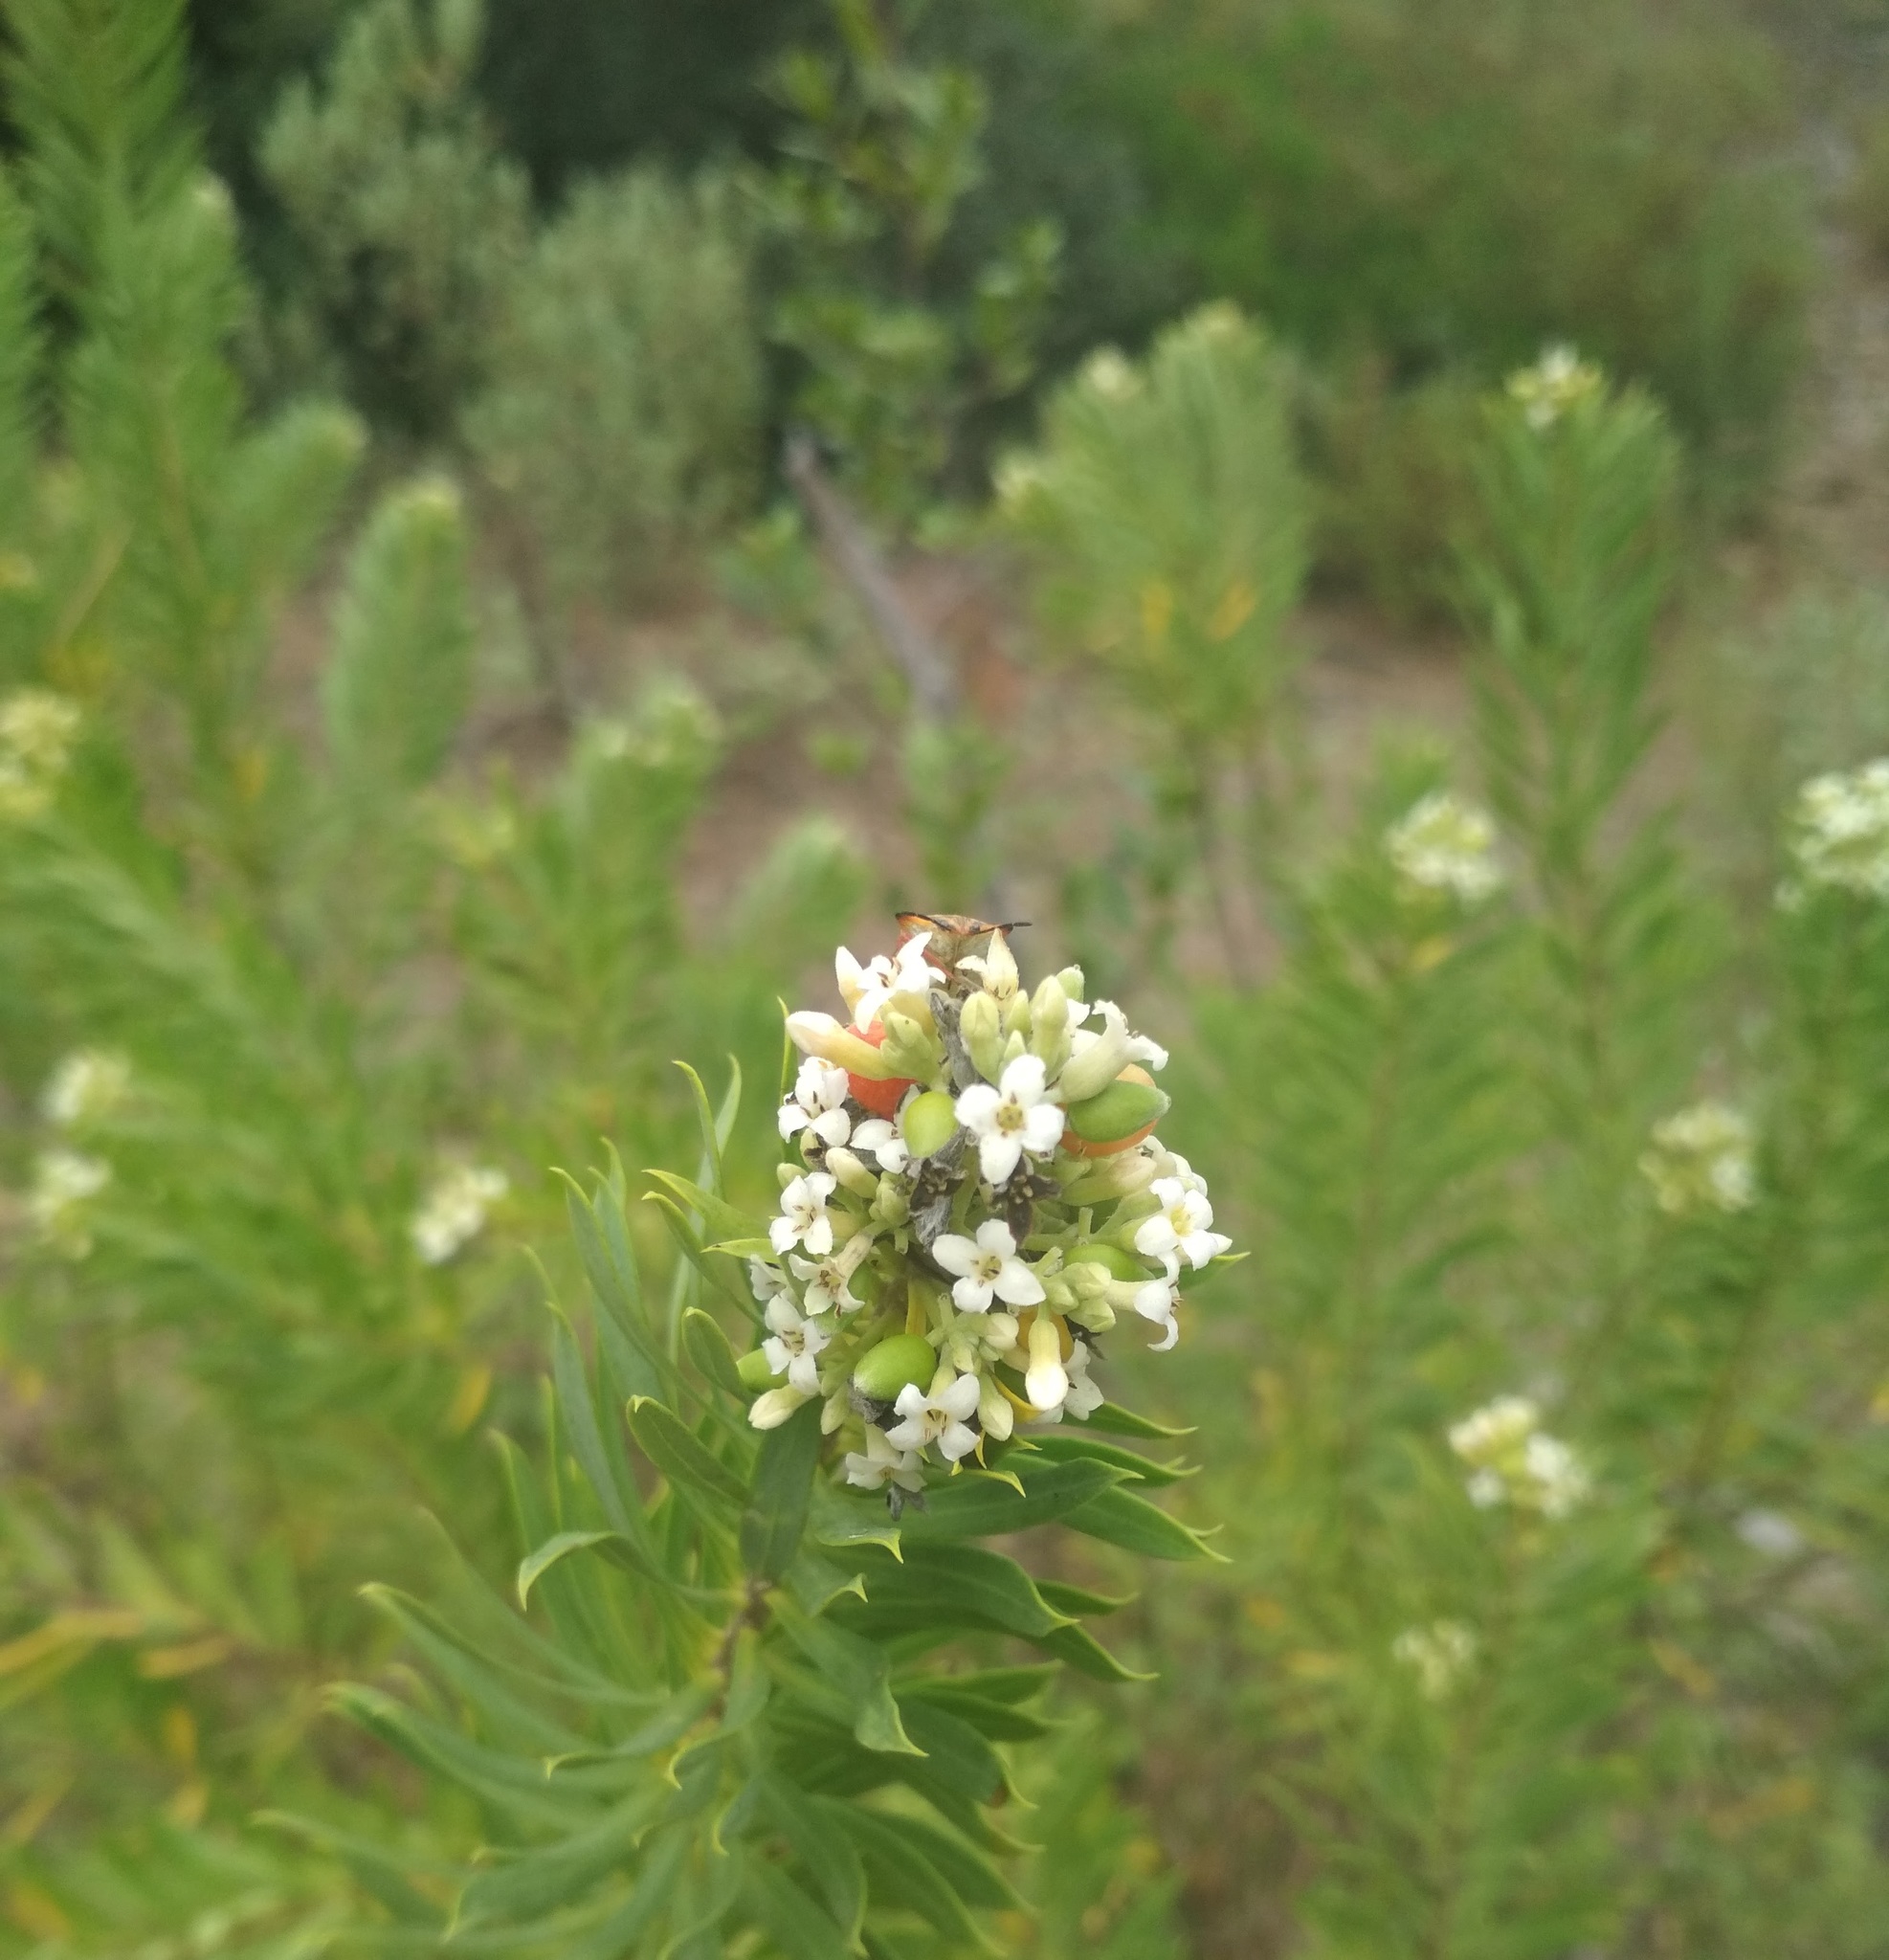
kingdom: Plantae
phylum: Tracheophyta
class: Magnoliopsida
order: Malvales
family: Thymelaeaceae
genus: Daphne
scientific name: Daphne gnidium
